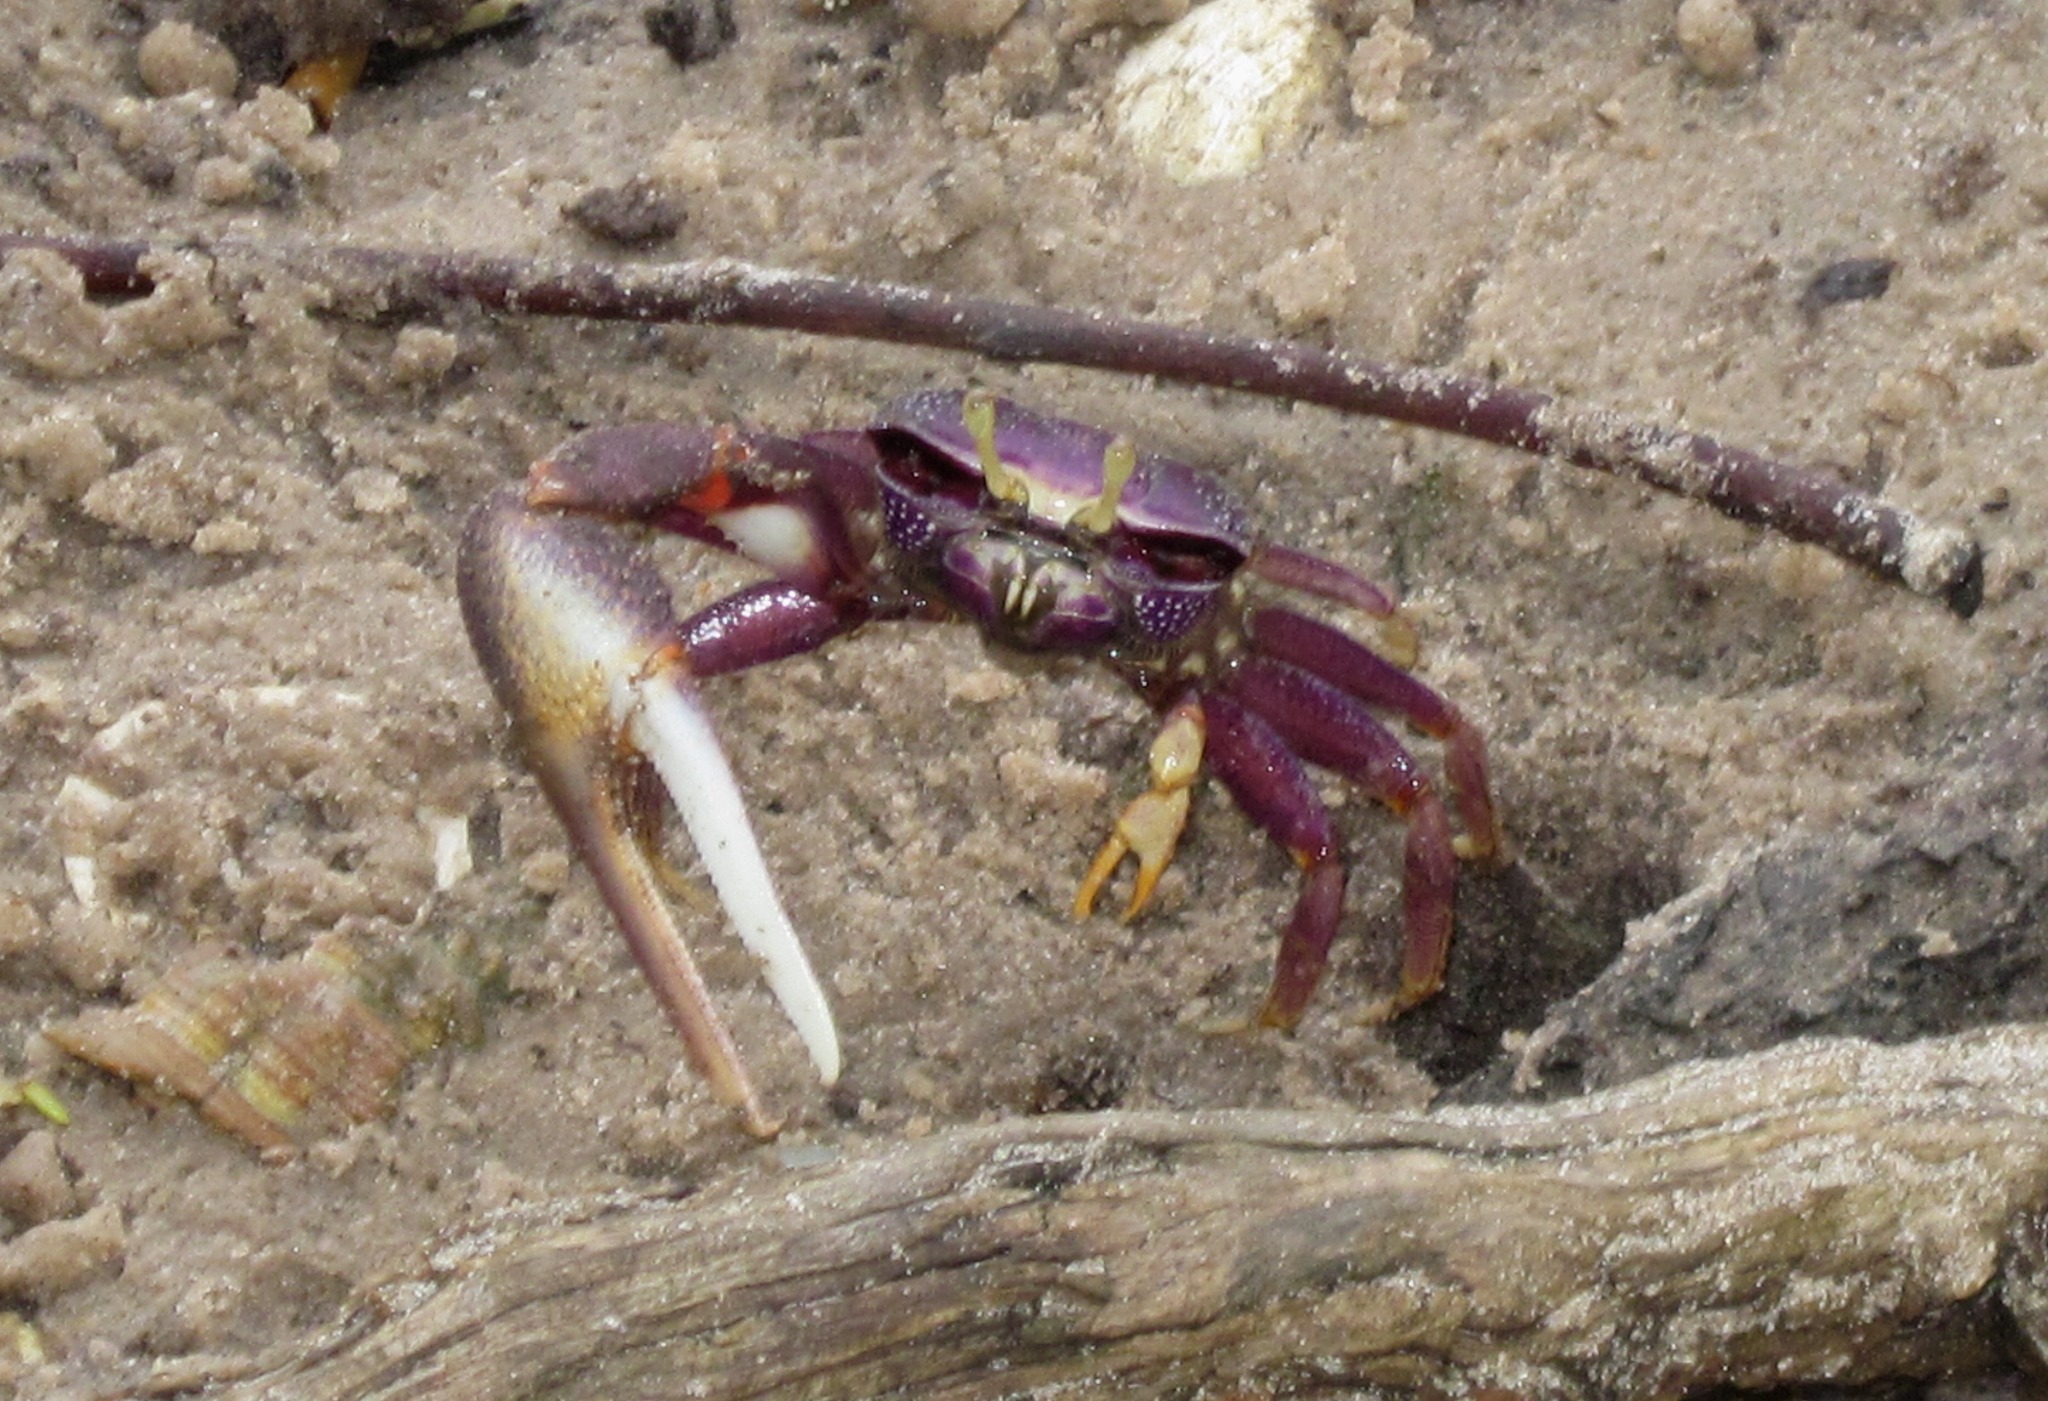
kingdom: Animalia
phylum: Arthropoda
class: Malacostraca
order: Decapoda
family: Ocypodidae
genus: Afruca
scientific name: Afruca tangeri
